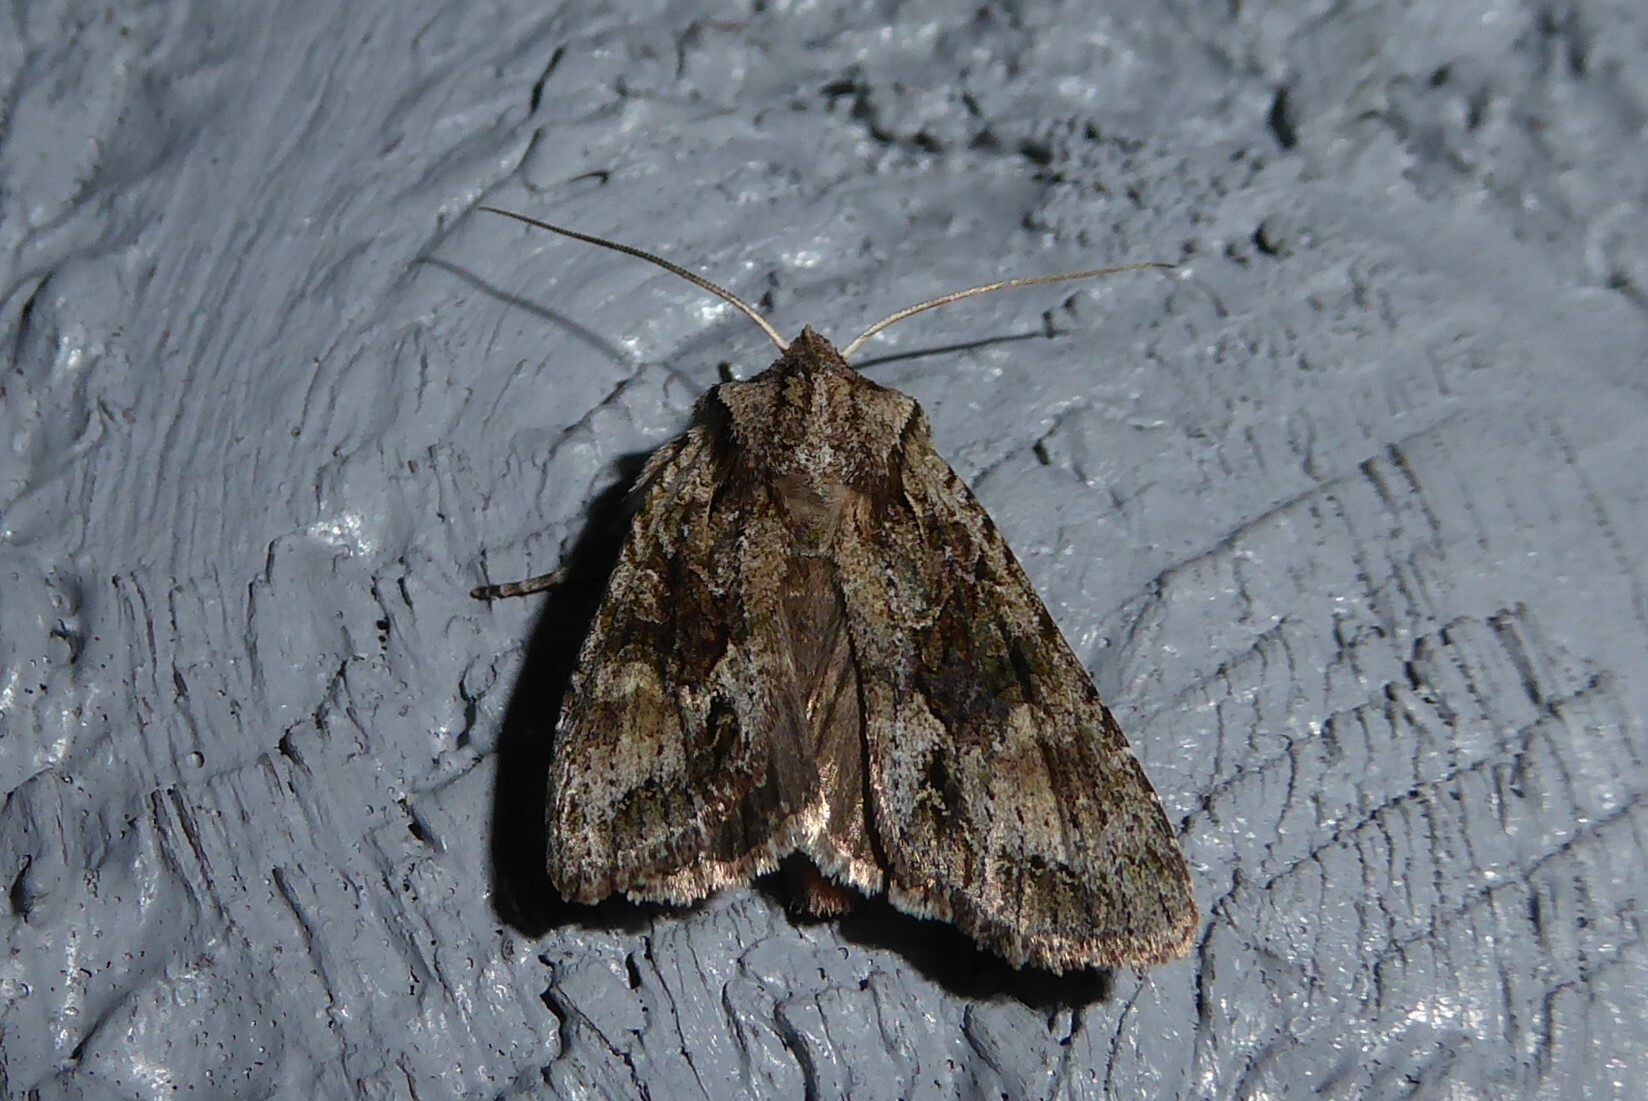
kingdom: Animalia
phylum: Arthropoda
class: Insecta
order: Lepidoptera
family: Noctuidae
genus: Ichneutica
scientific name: Ichneutica mutans
